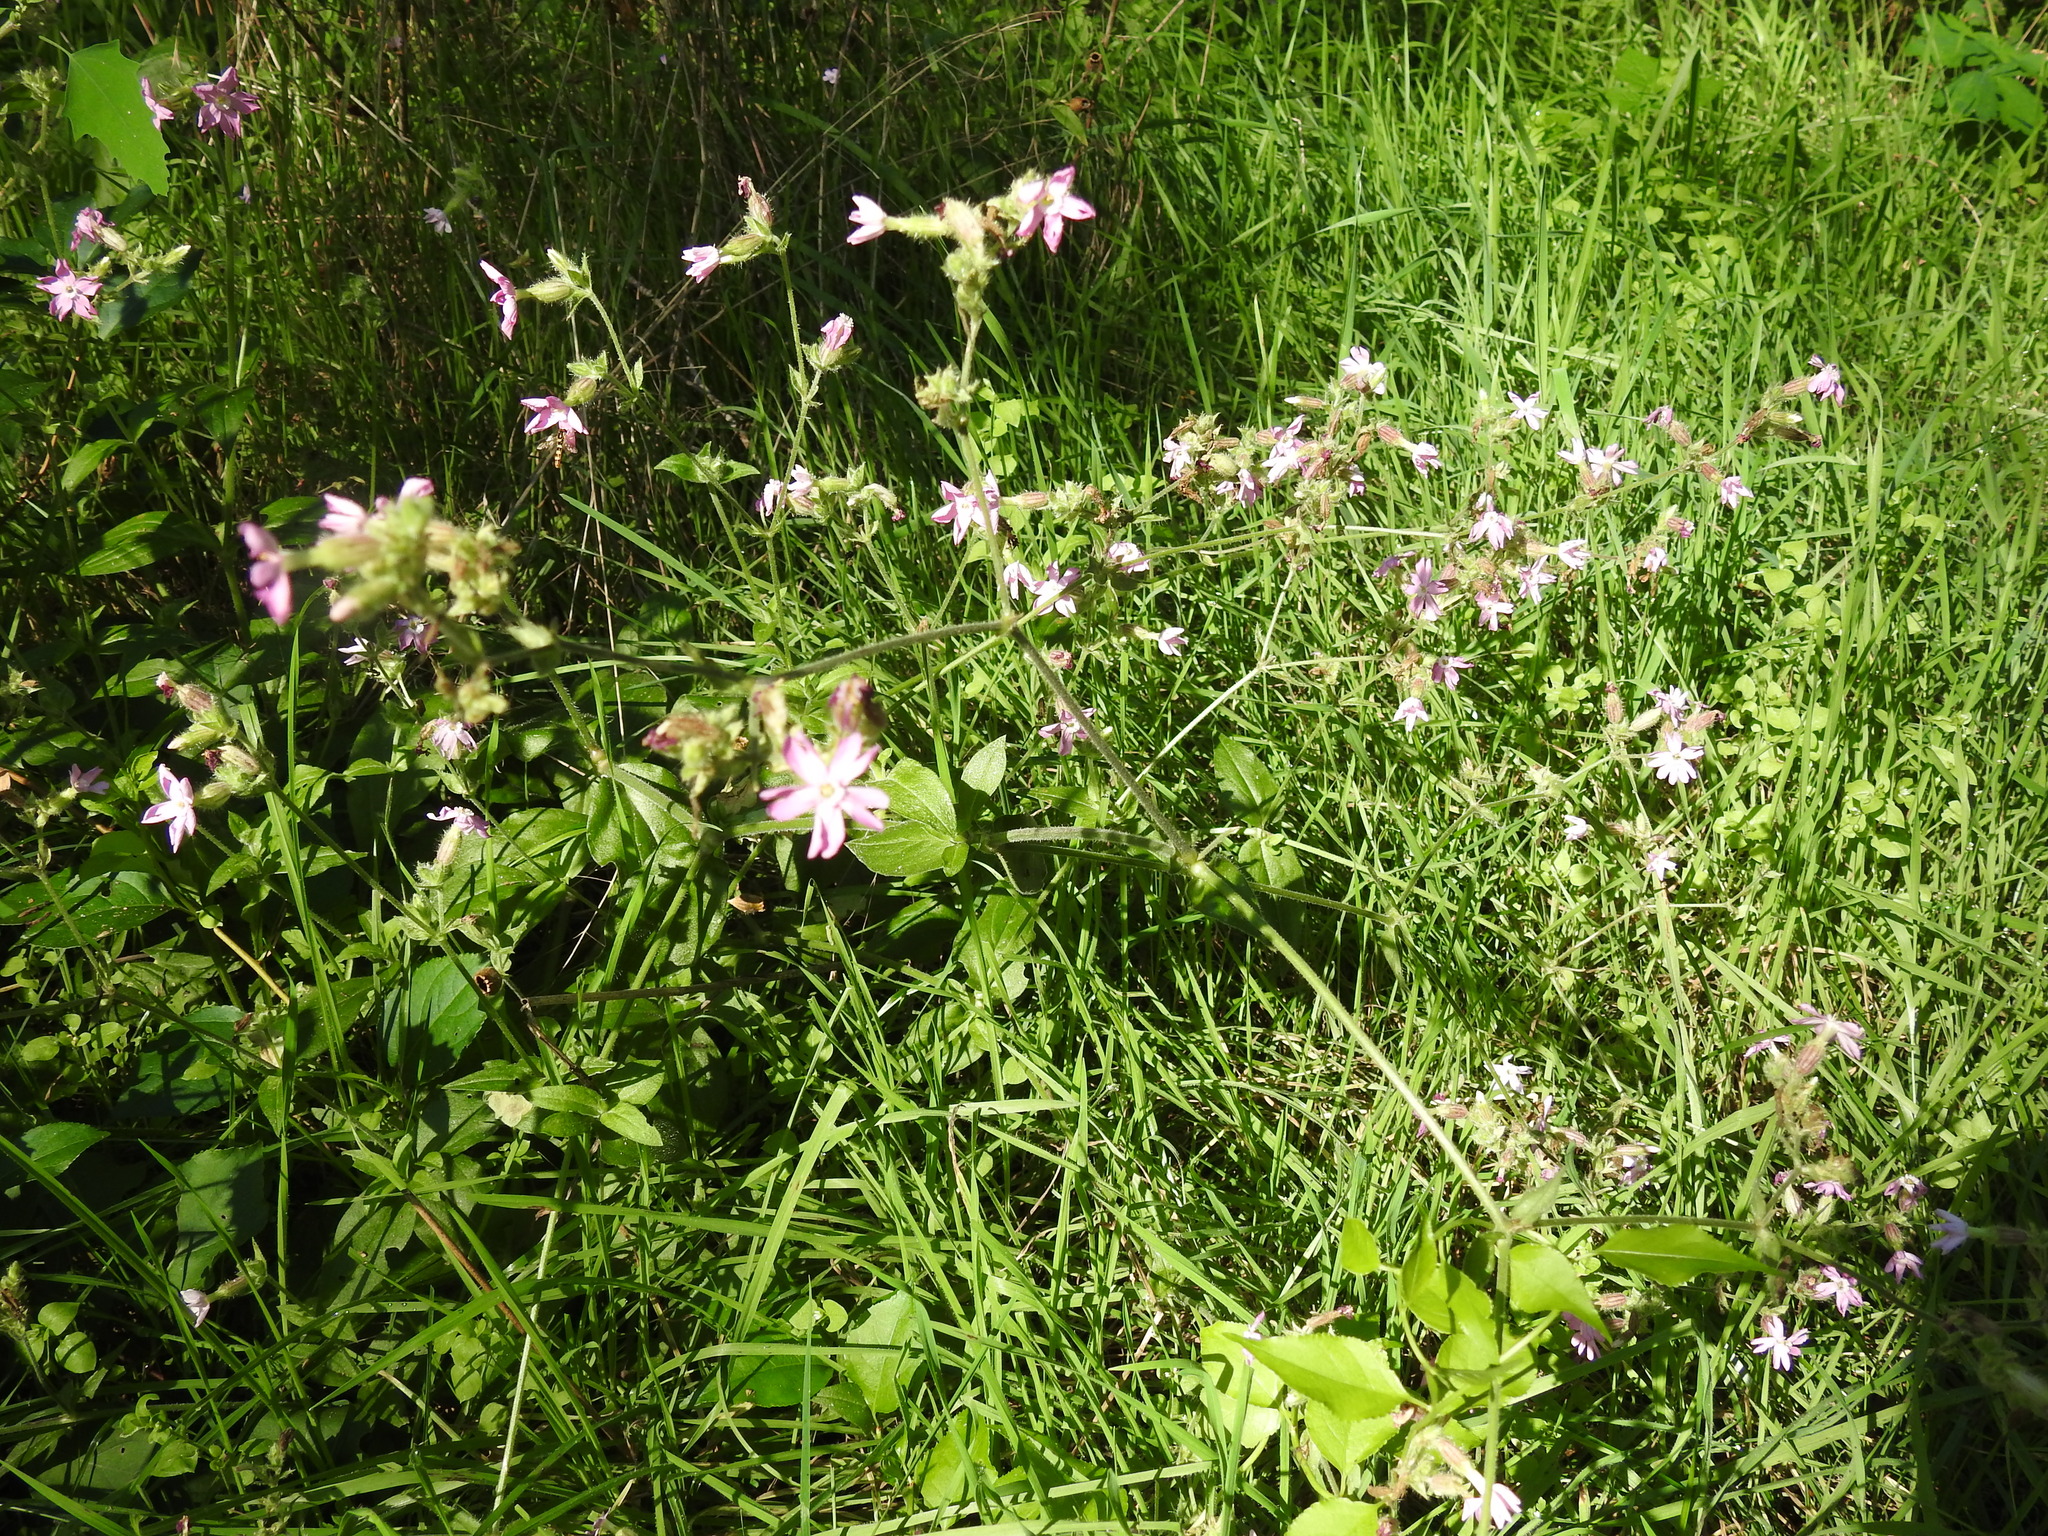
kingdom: Plantae
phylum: Tracheophyta
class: Magnoliopsida
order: Caryophyllales
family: Caryophyllaceae
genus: Silene
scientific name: Silene dioica
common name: Red campion
